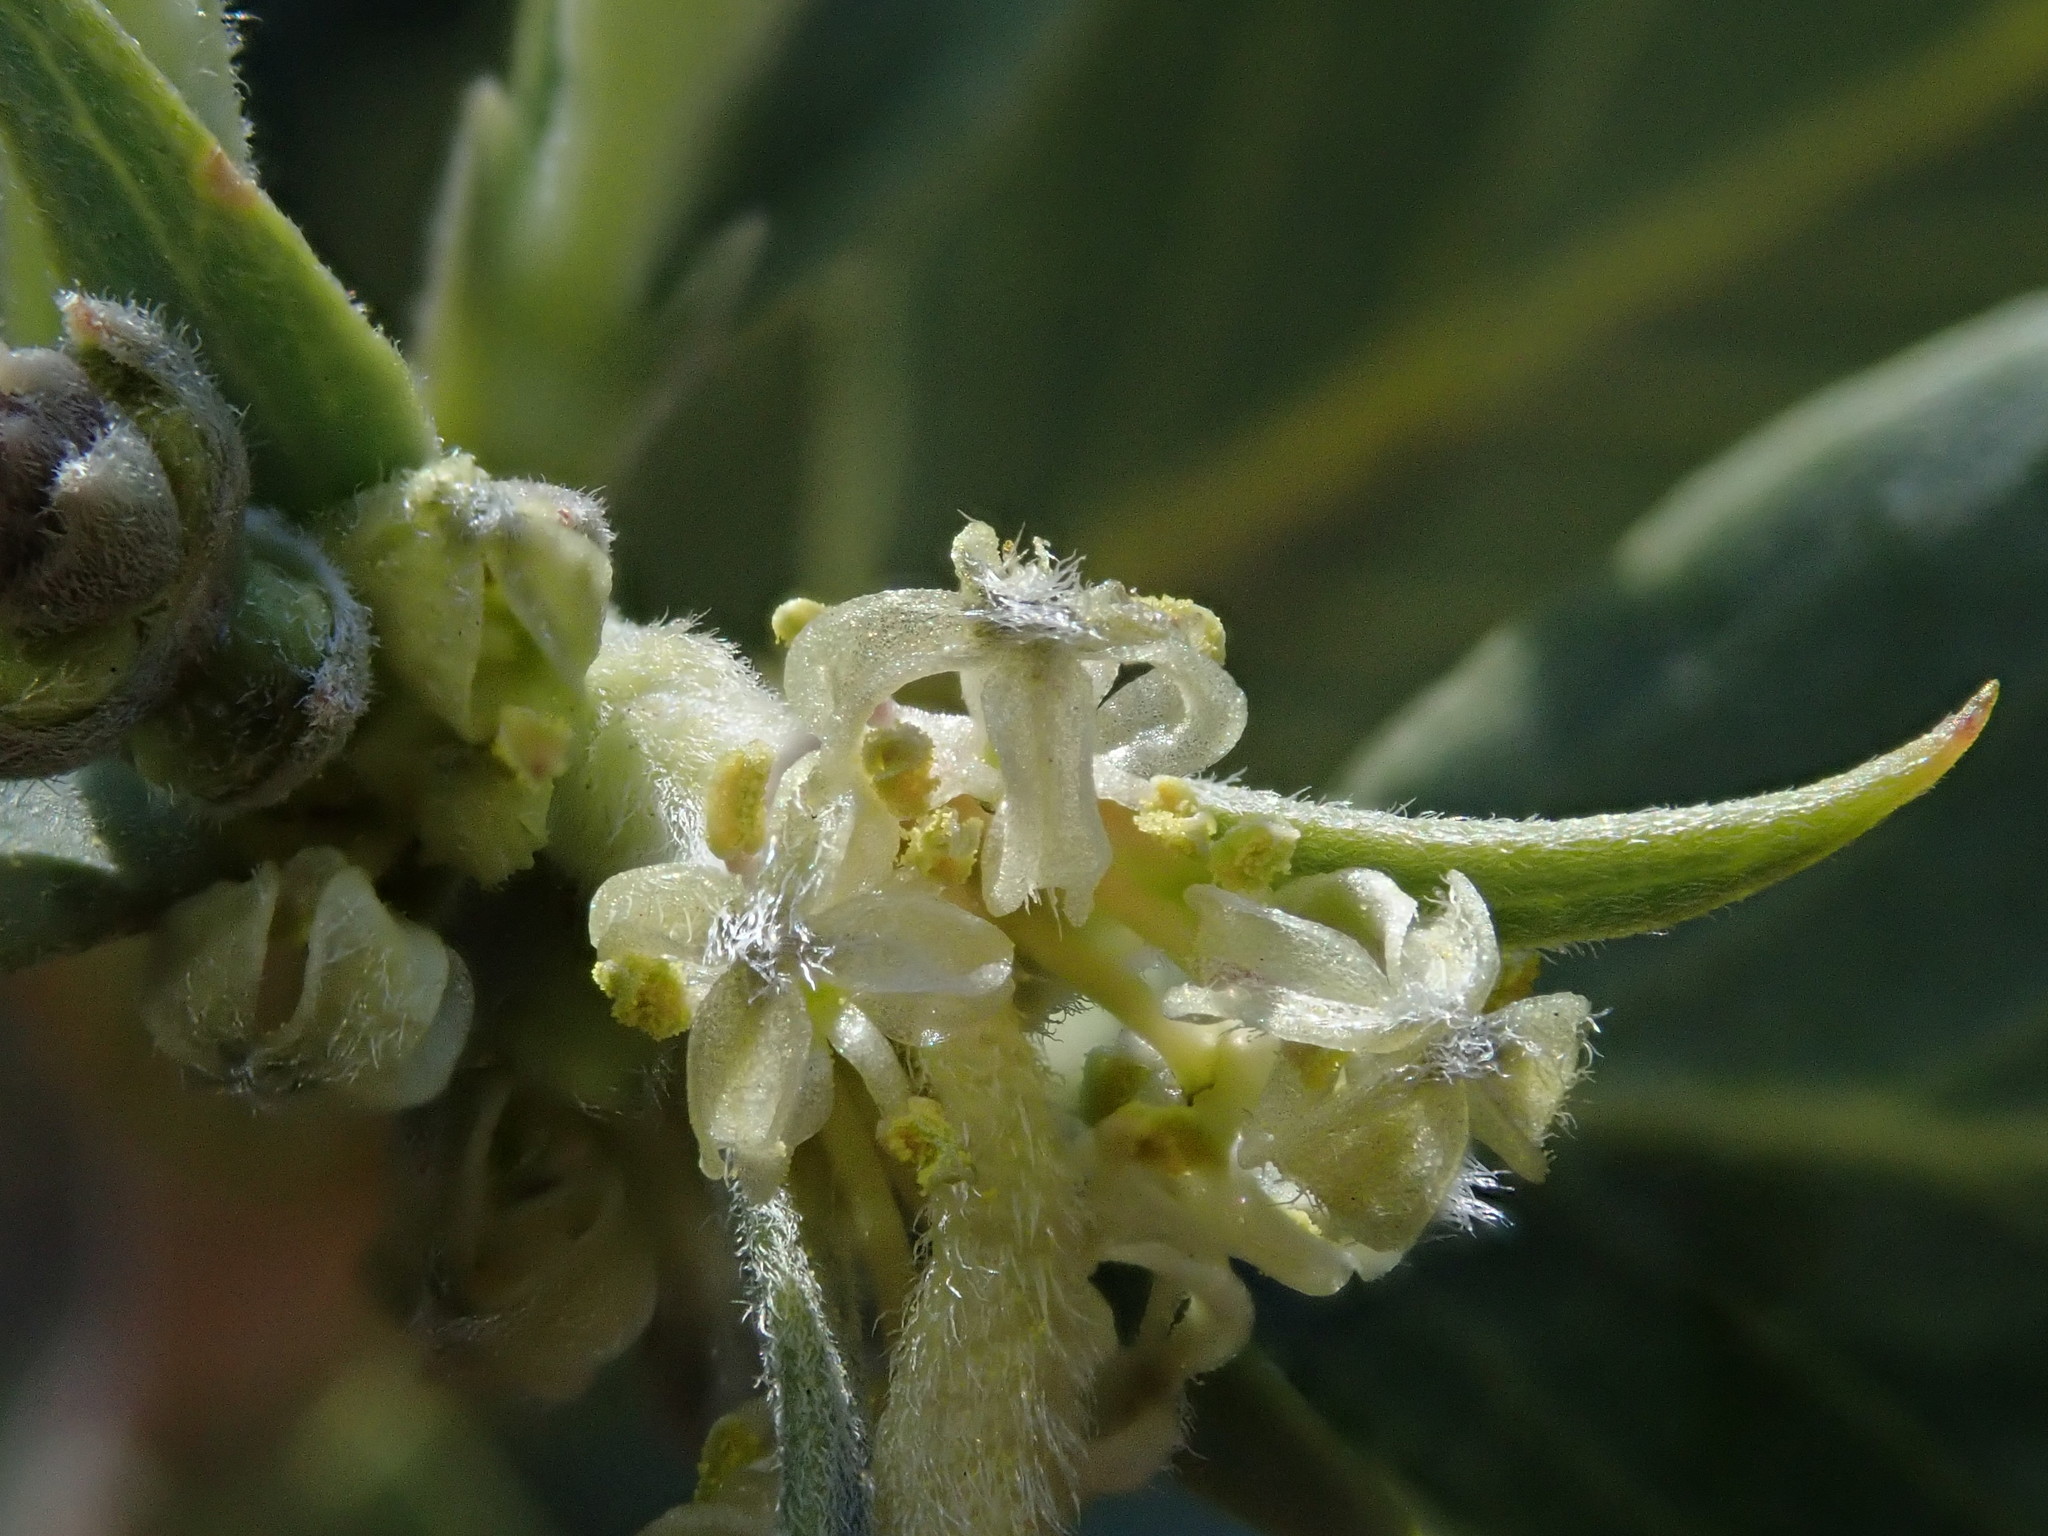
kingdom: Plantae
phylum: Tracheophyta
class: Magnoliopsida
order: Garryales
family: Garryaceae
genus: Garrya
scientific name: Garrya flavescens
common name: Ashy silk-tassel
